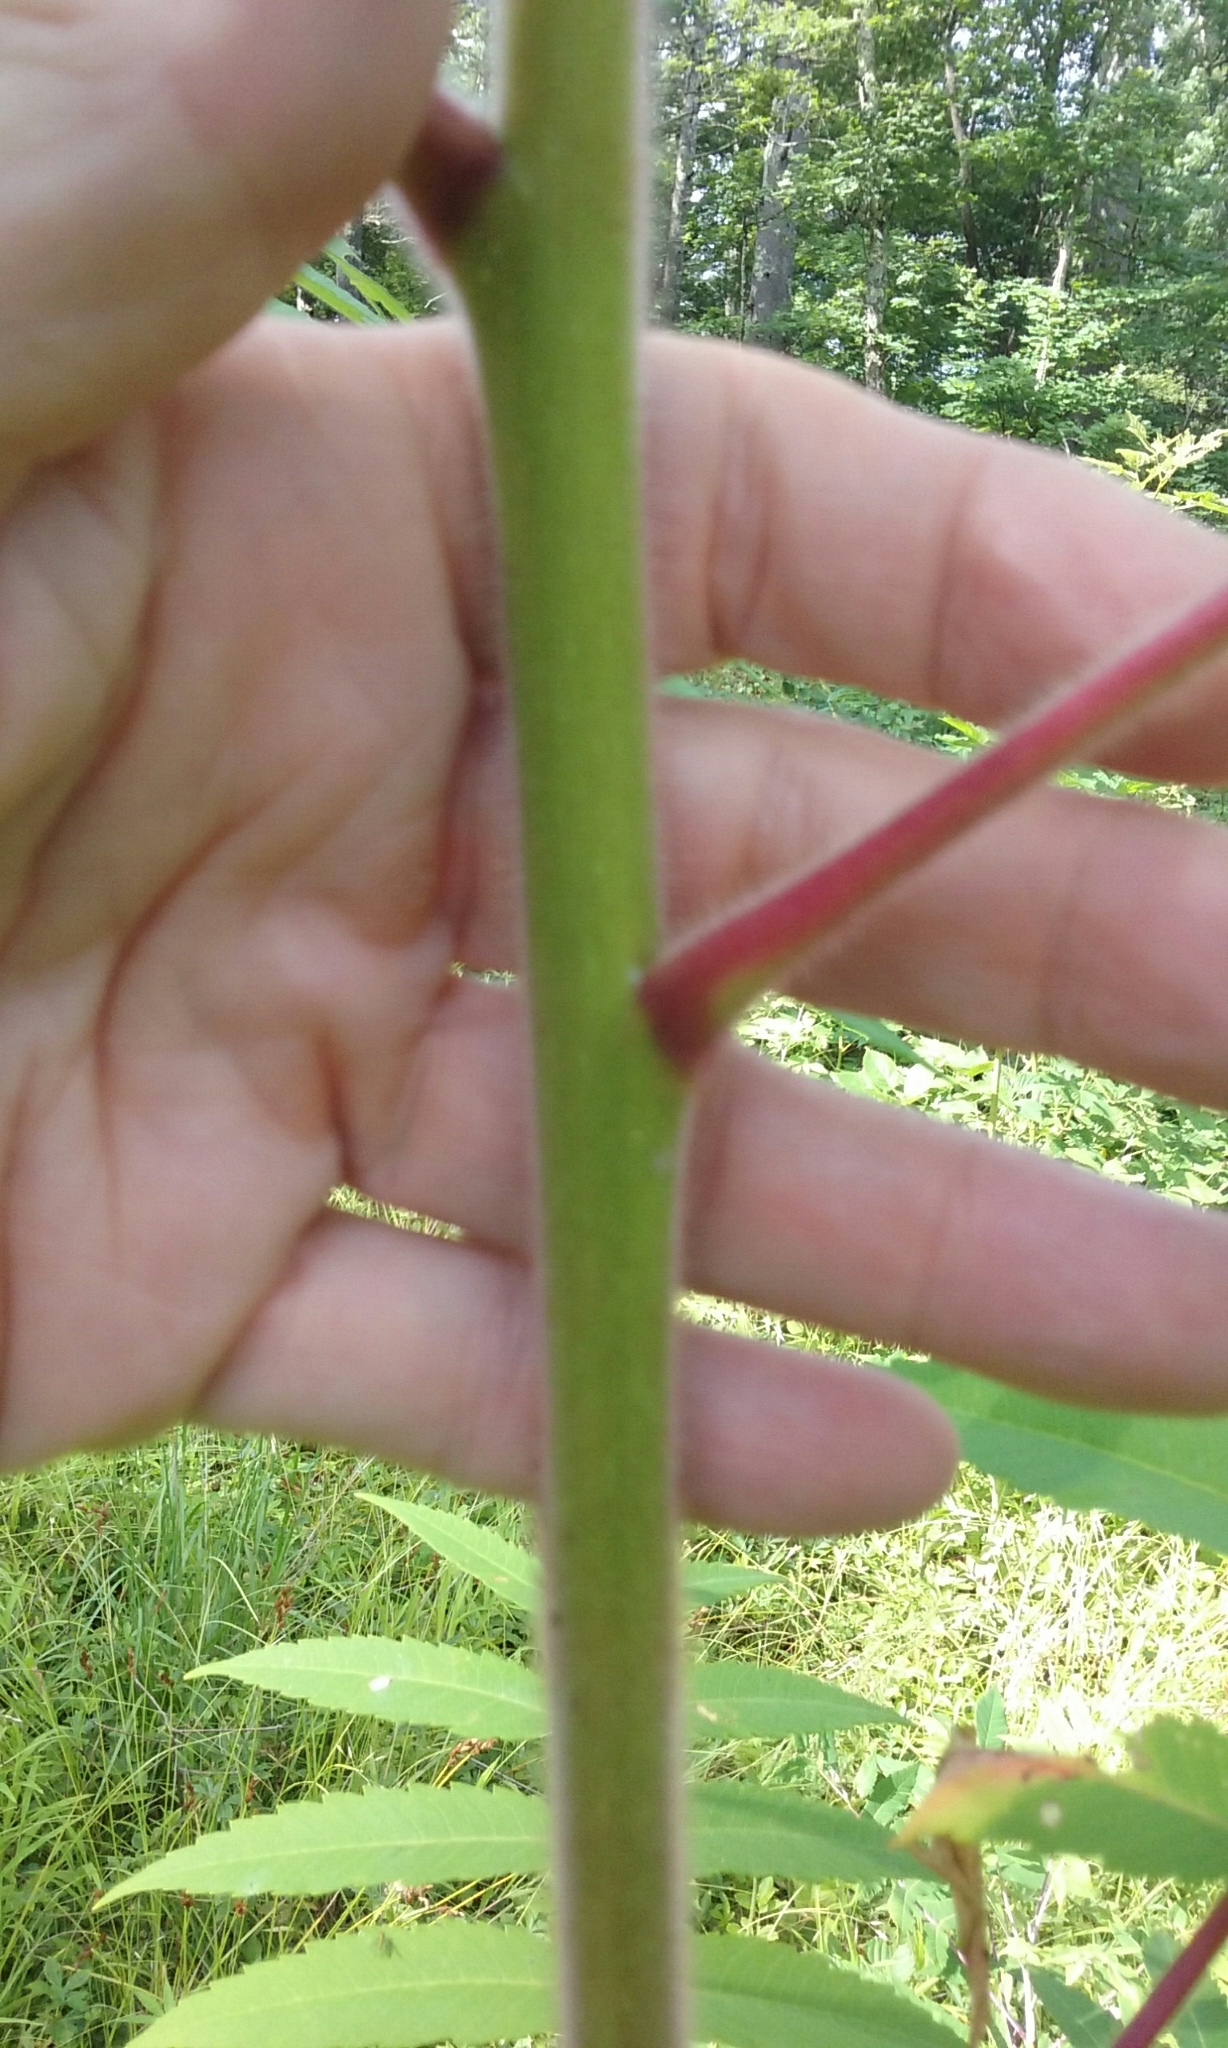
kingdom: Plantae
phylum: Tracheophyta
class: Magnoliopsida
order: Sapindales
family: Anacardiaceae
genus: Rhus
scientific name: Rhus typhina
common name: Staghorn sumac
